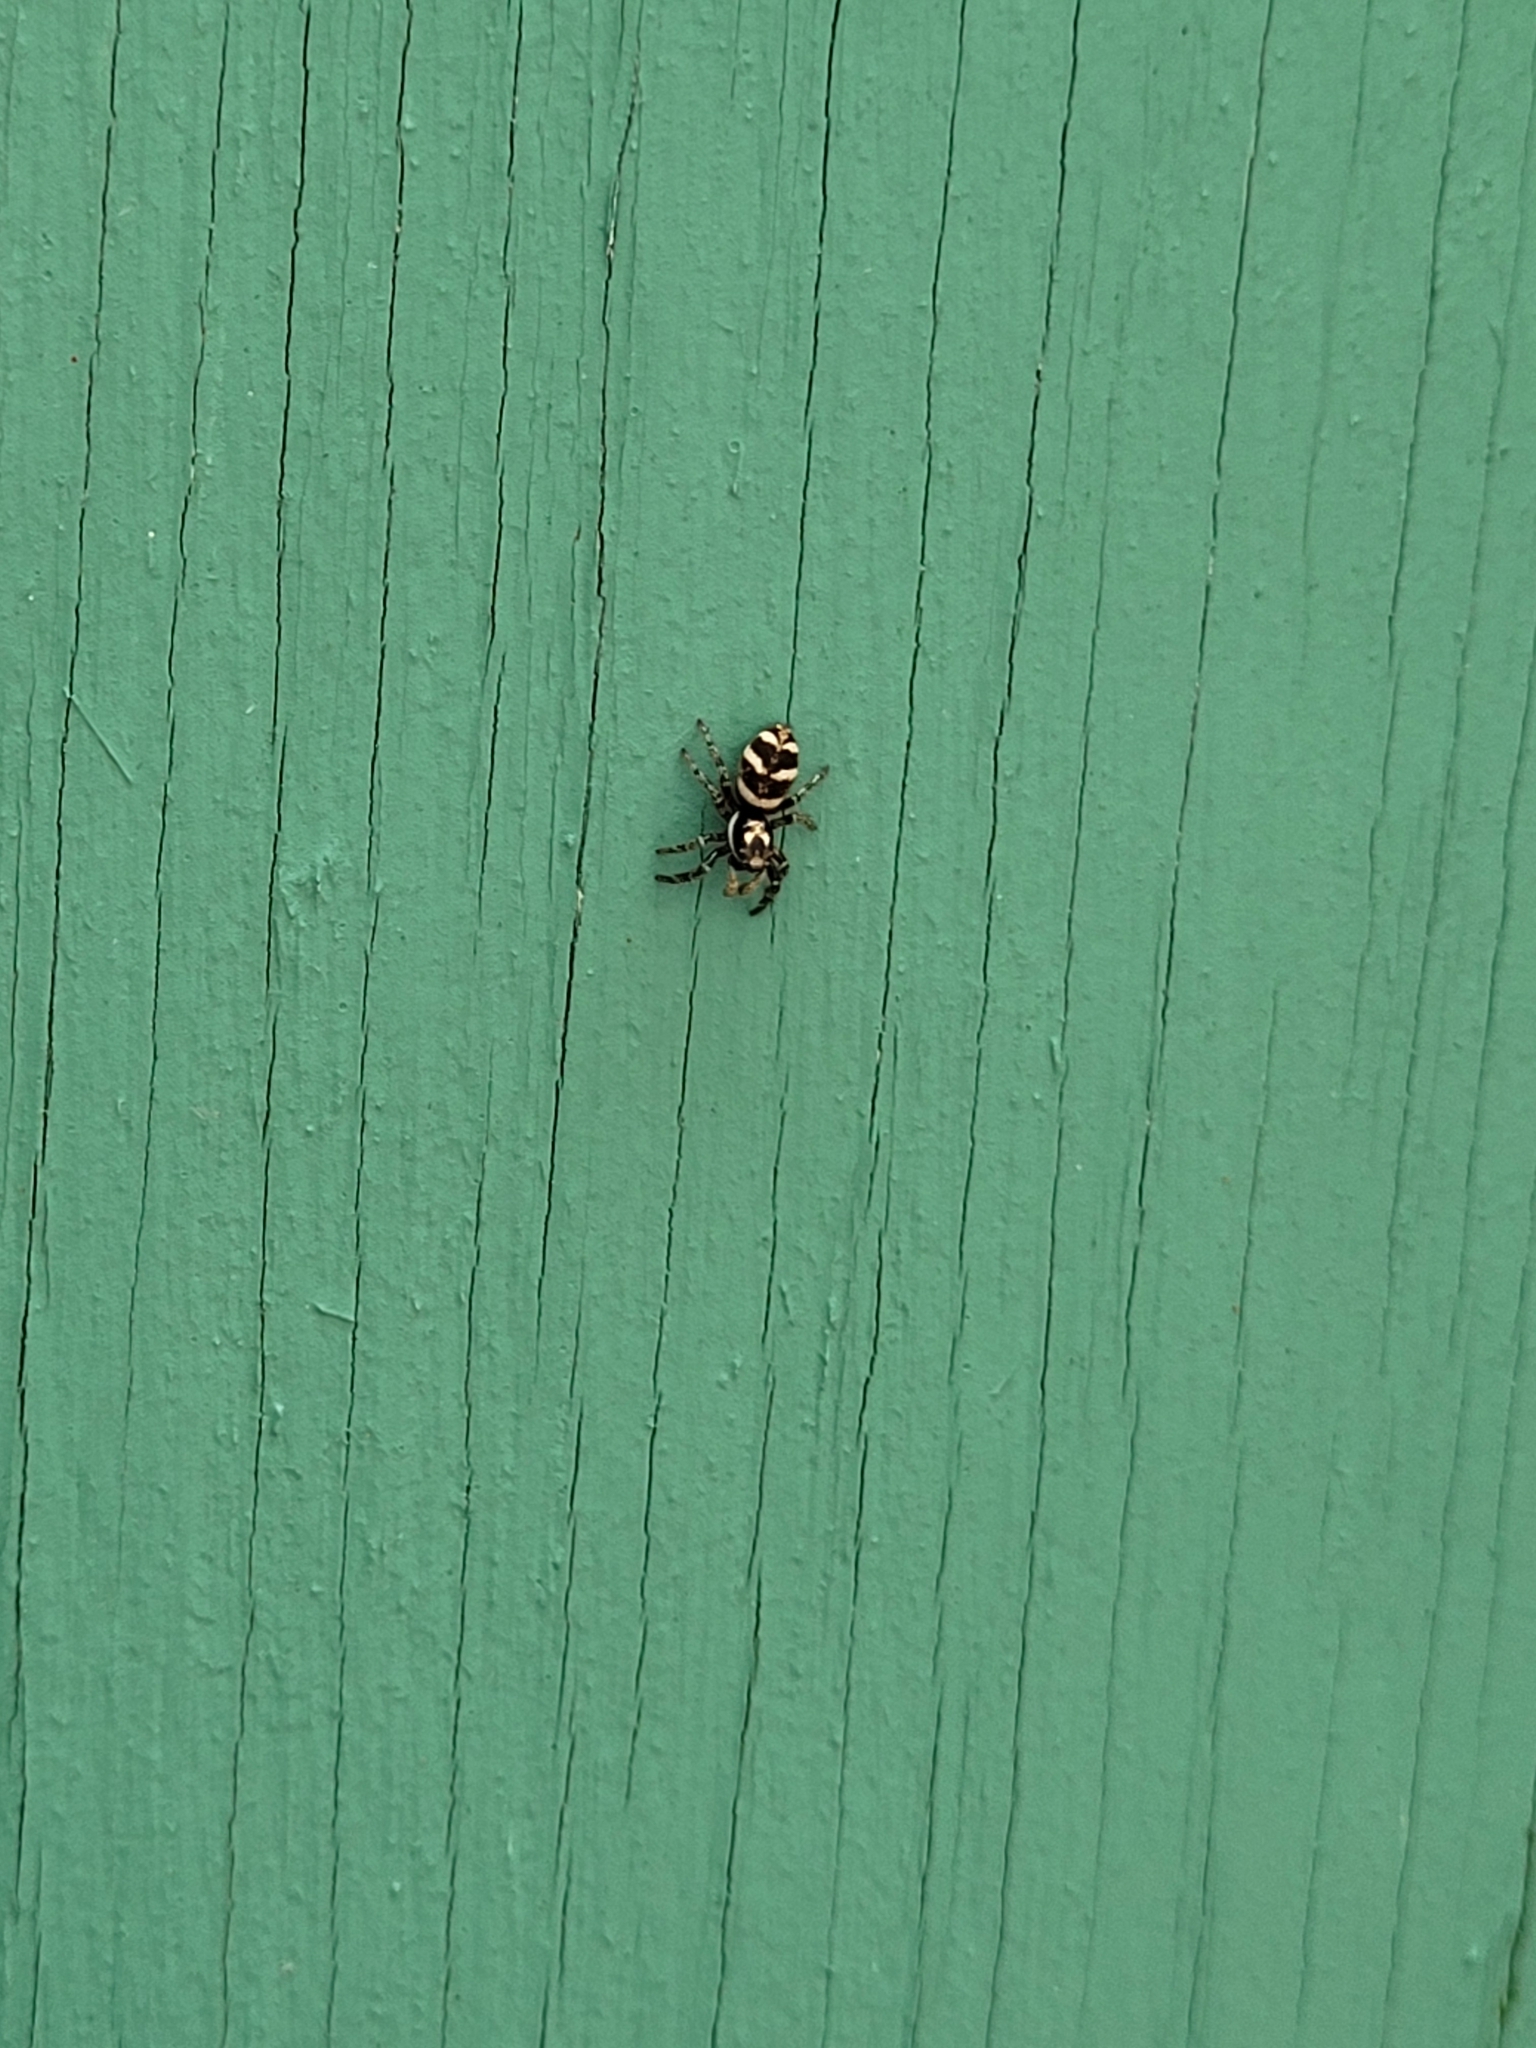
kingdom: Animalia
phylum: Arthropoda
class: Arachnida
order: Araneae
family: Salticidae
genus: Salticus
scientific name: Salticus scenicus
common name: Zebra jumper
